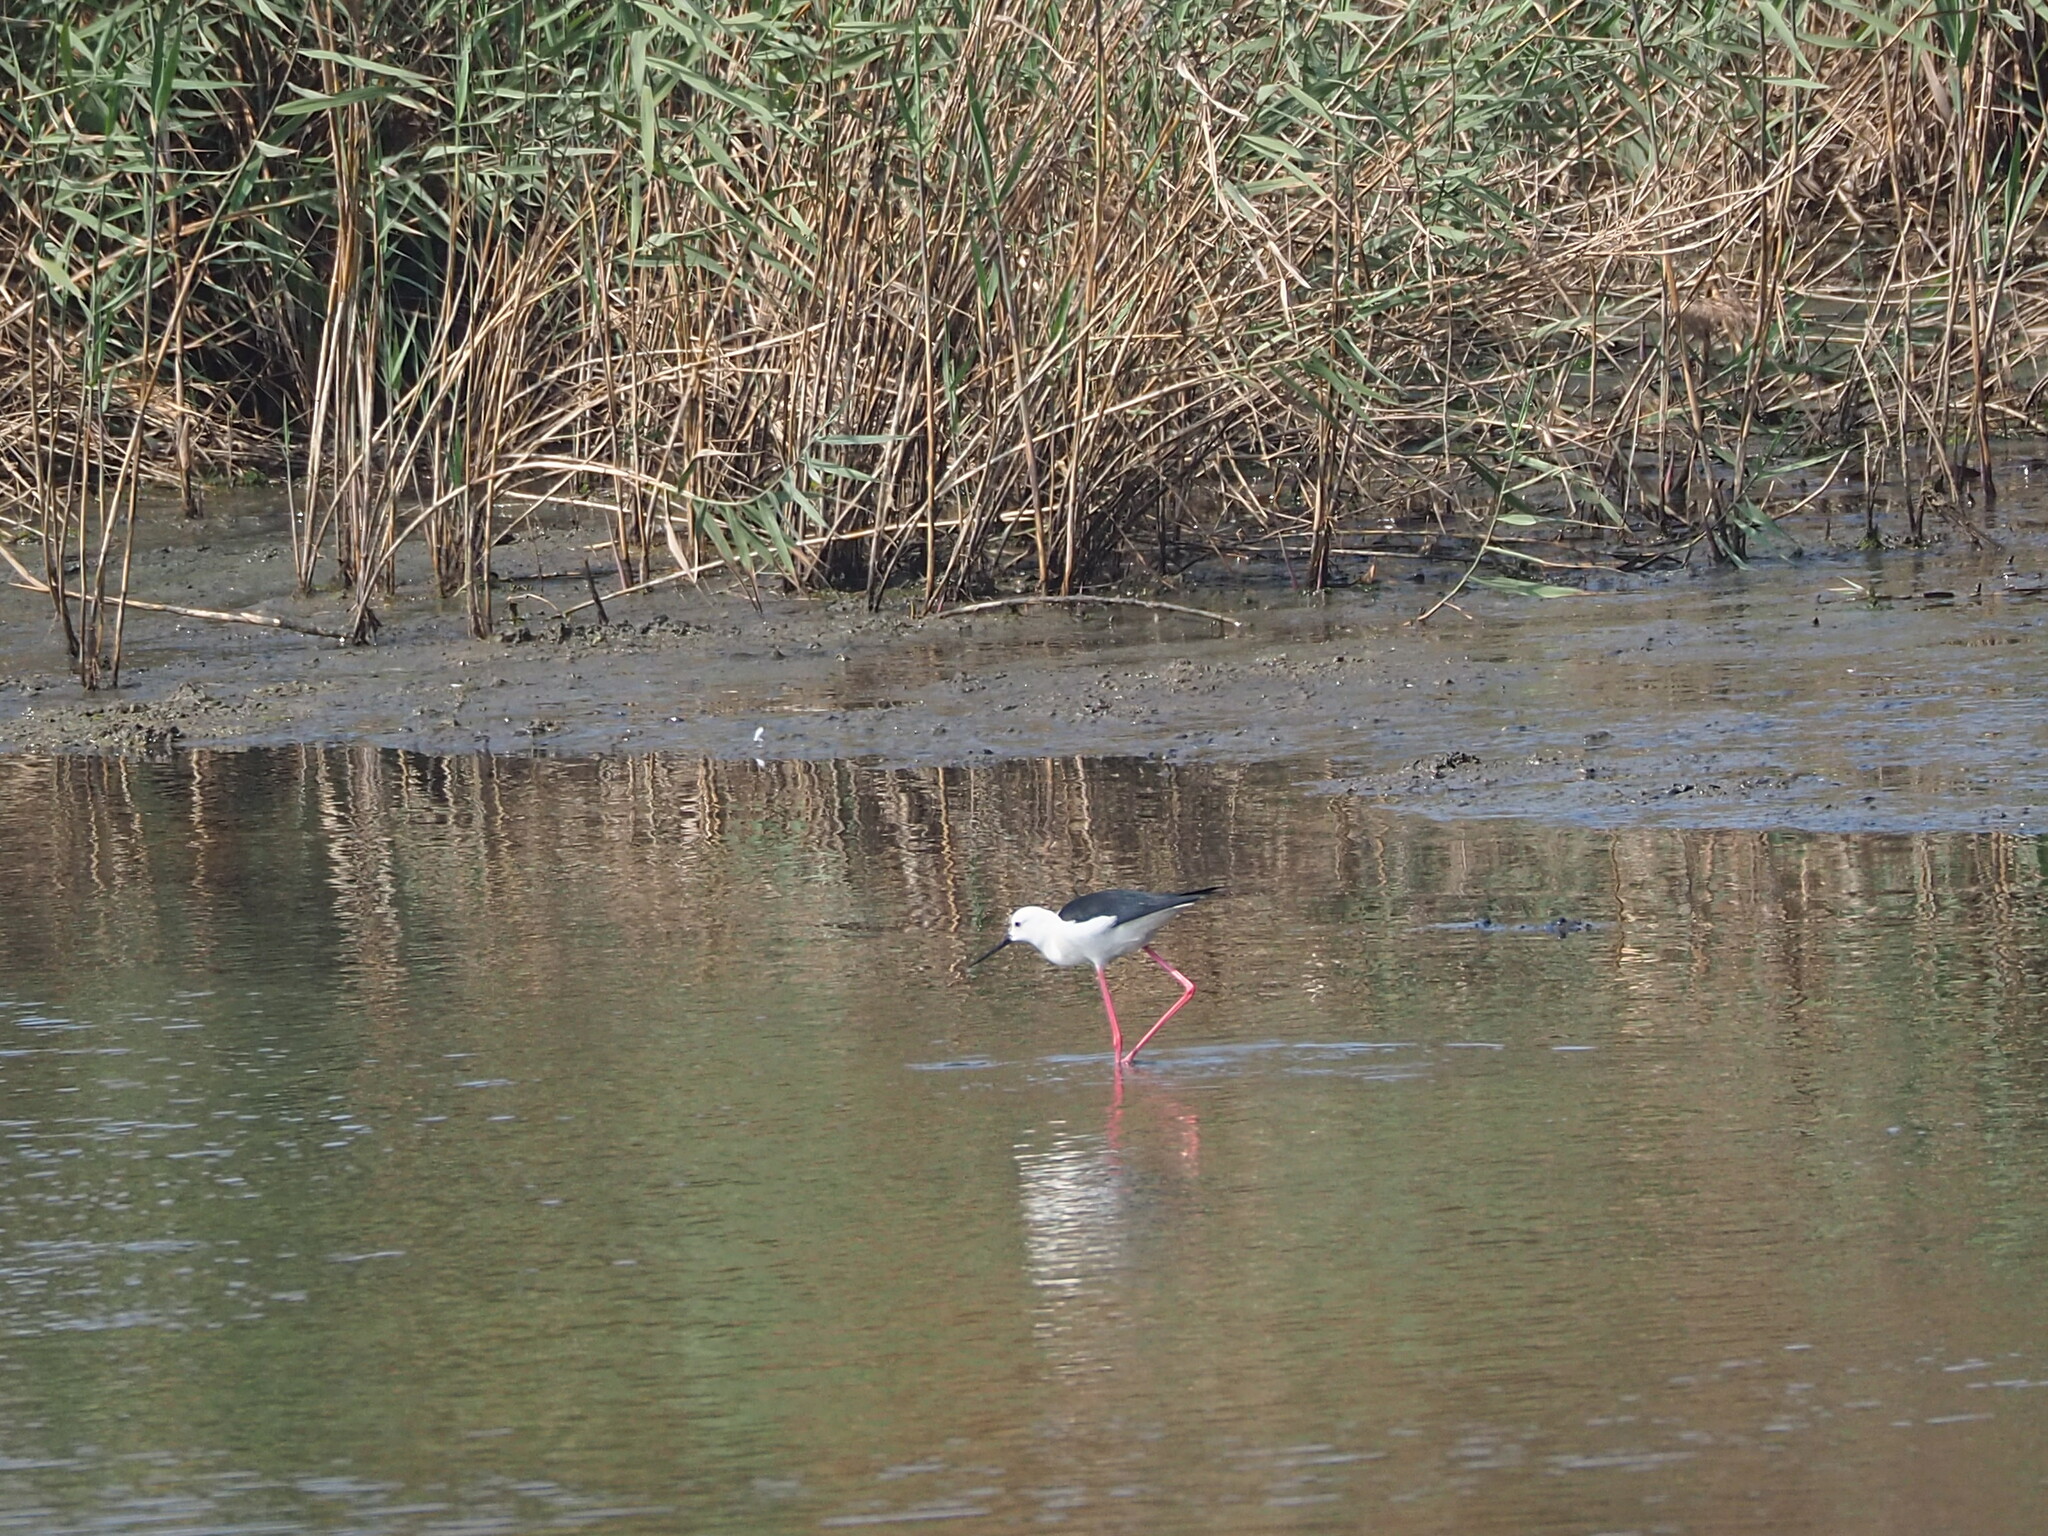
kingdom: Animalia
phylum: Chordata
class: Aves
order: Charadriiformes
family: Recurvirostridae
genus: Himantopus
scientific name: Himantopus himantopus
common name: Black-winged stilt
